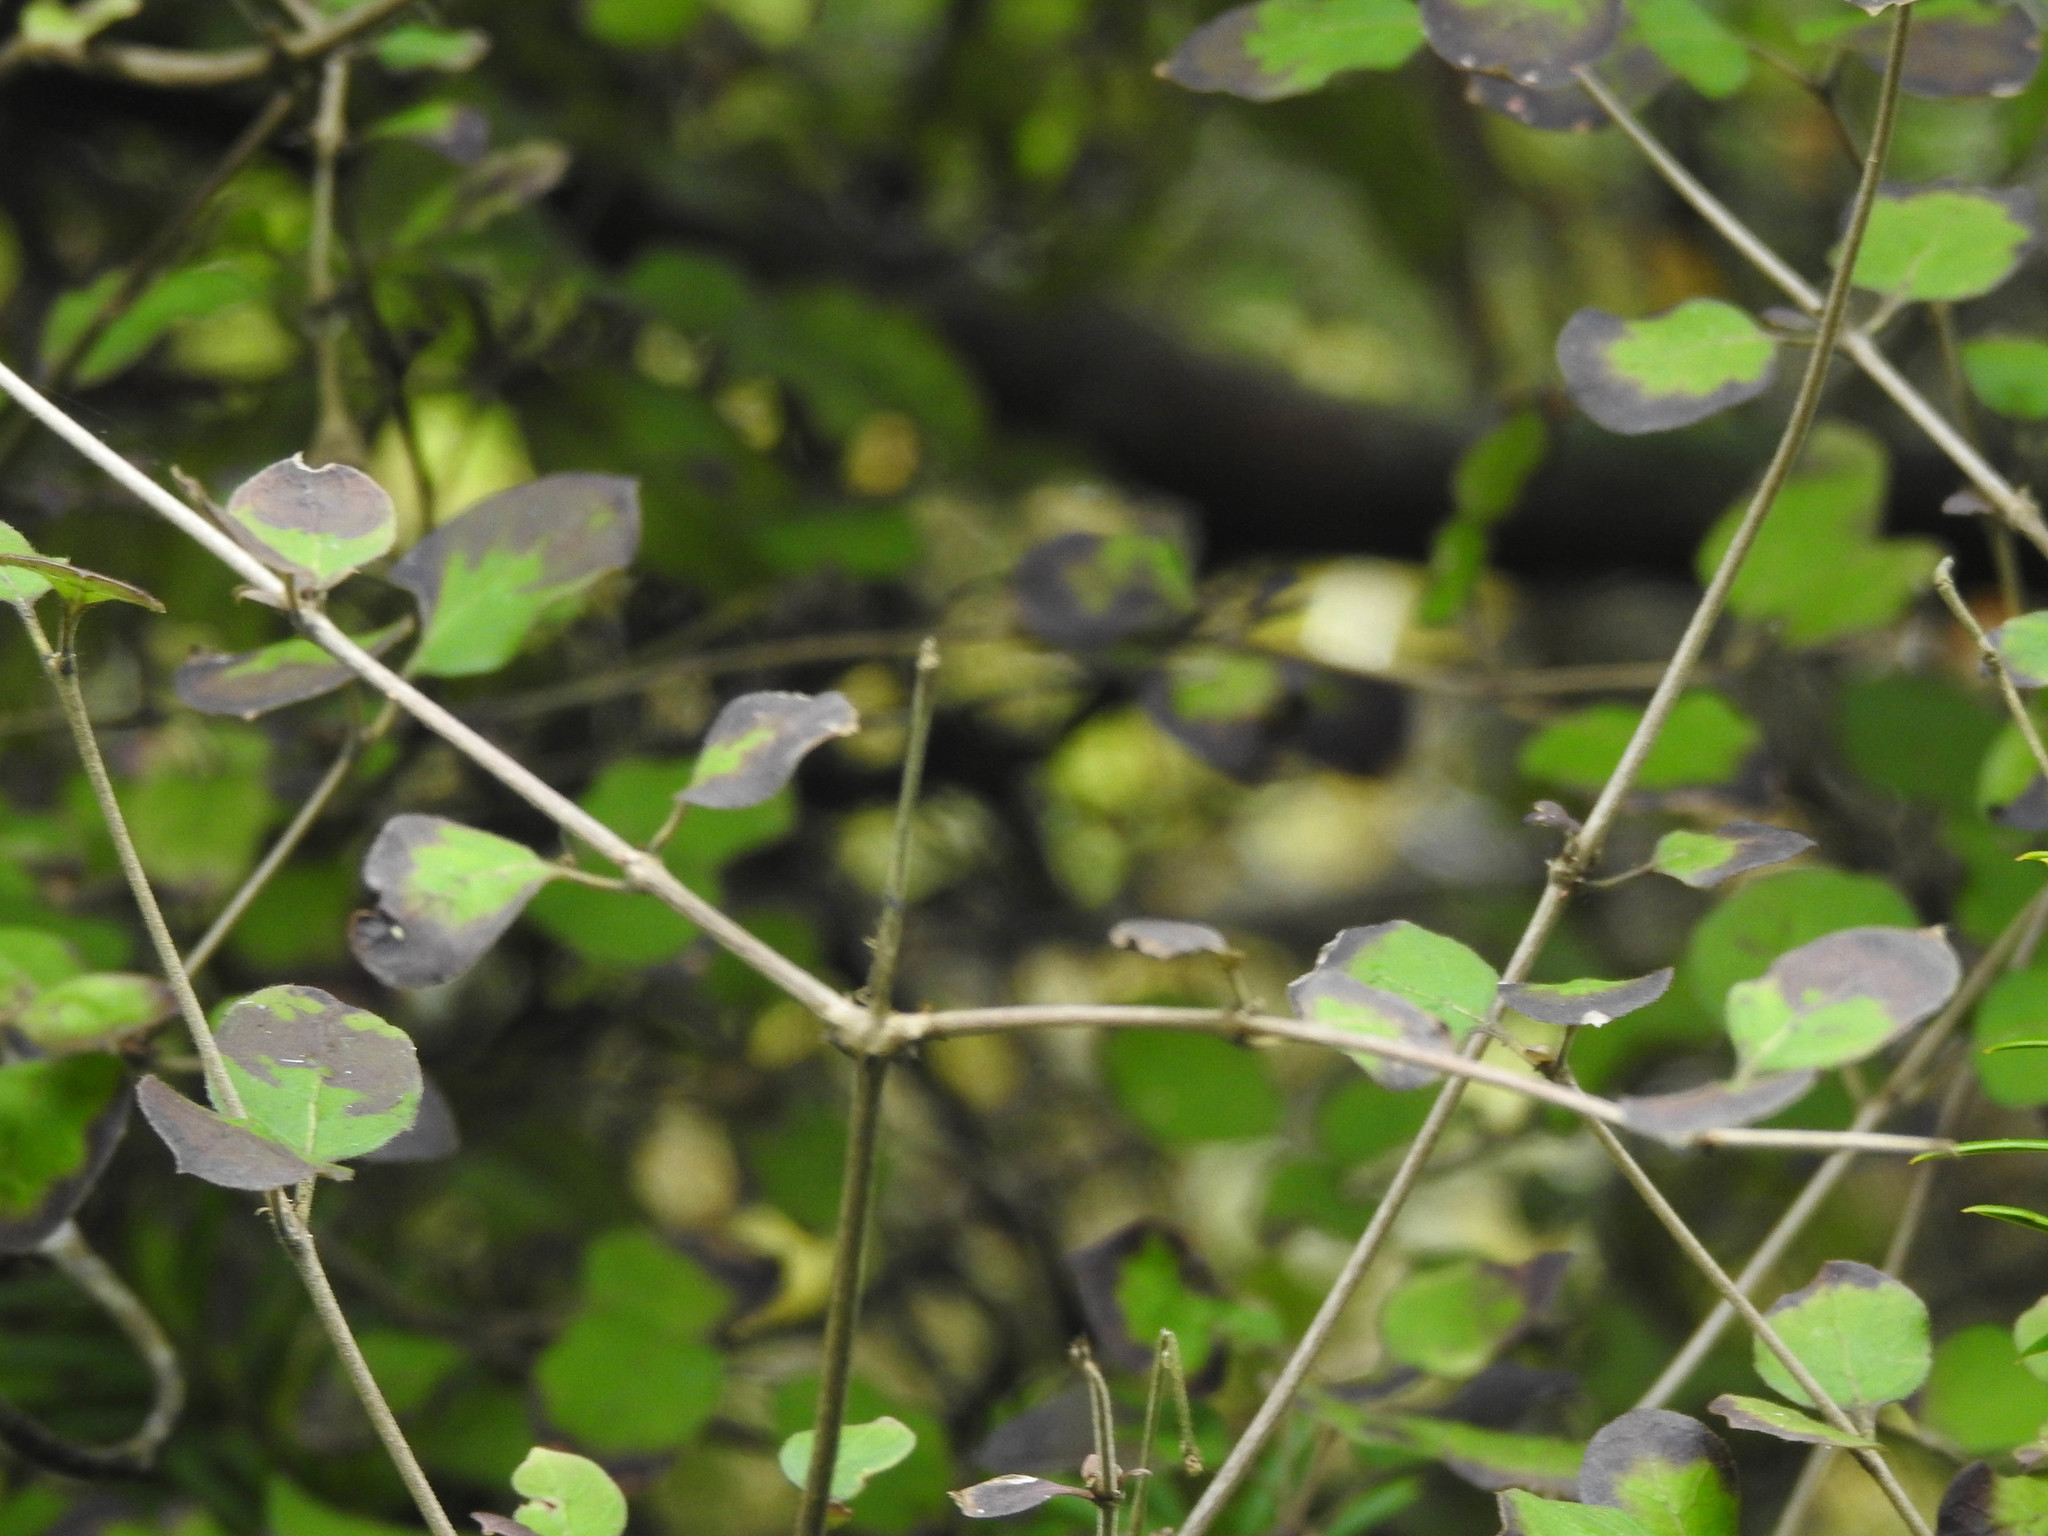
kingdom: Plantae
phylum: Tracheophyta
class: Magnoliopsida
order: Gentianales
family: Rubiaceae
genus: Coprosma
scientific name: Coprosma rotundifolia
